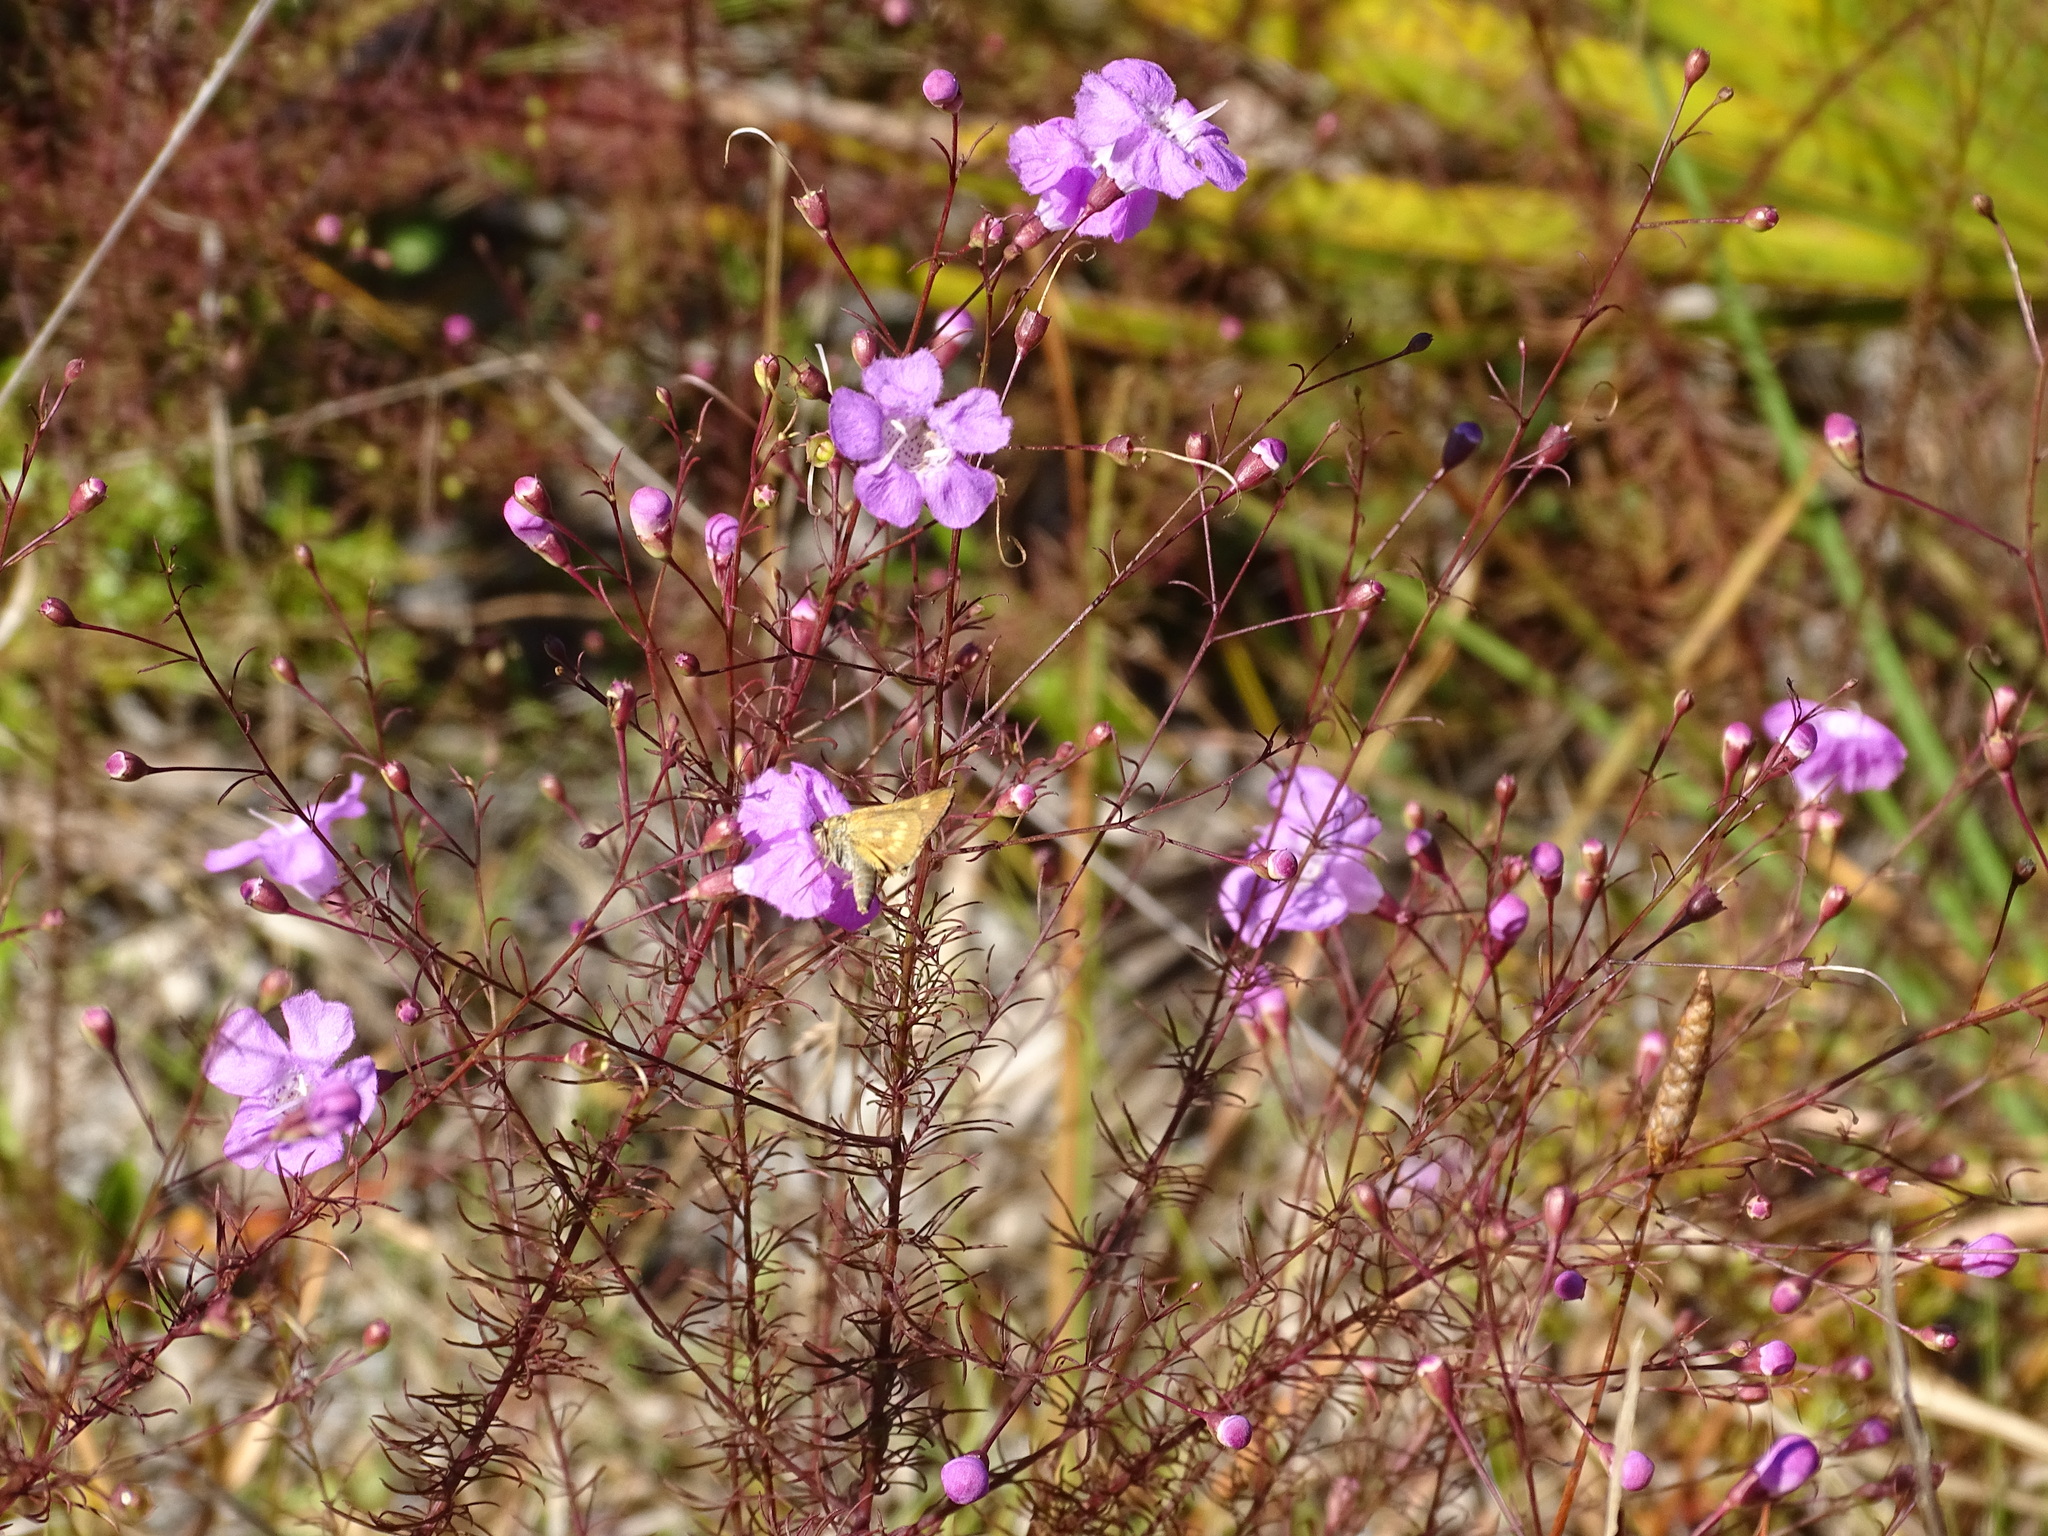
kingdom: Animalia
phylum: Arthropoda
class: Insecta
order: Lepidoptera
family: Hesperiidae
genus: Polites
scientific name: Polites otho
